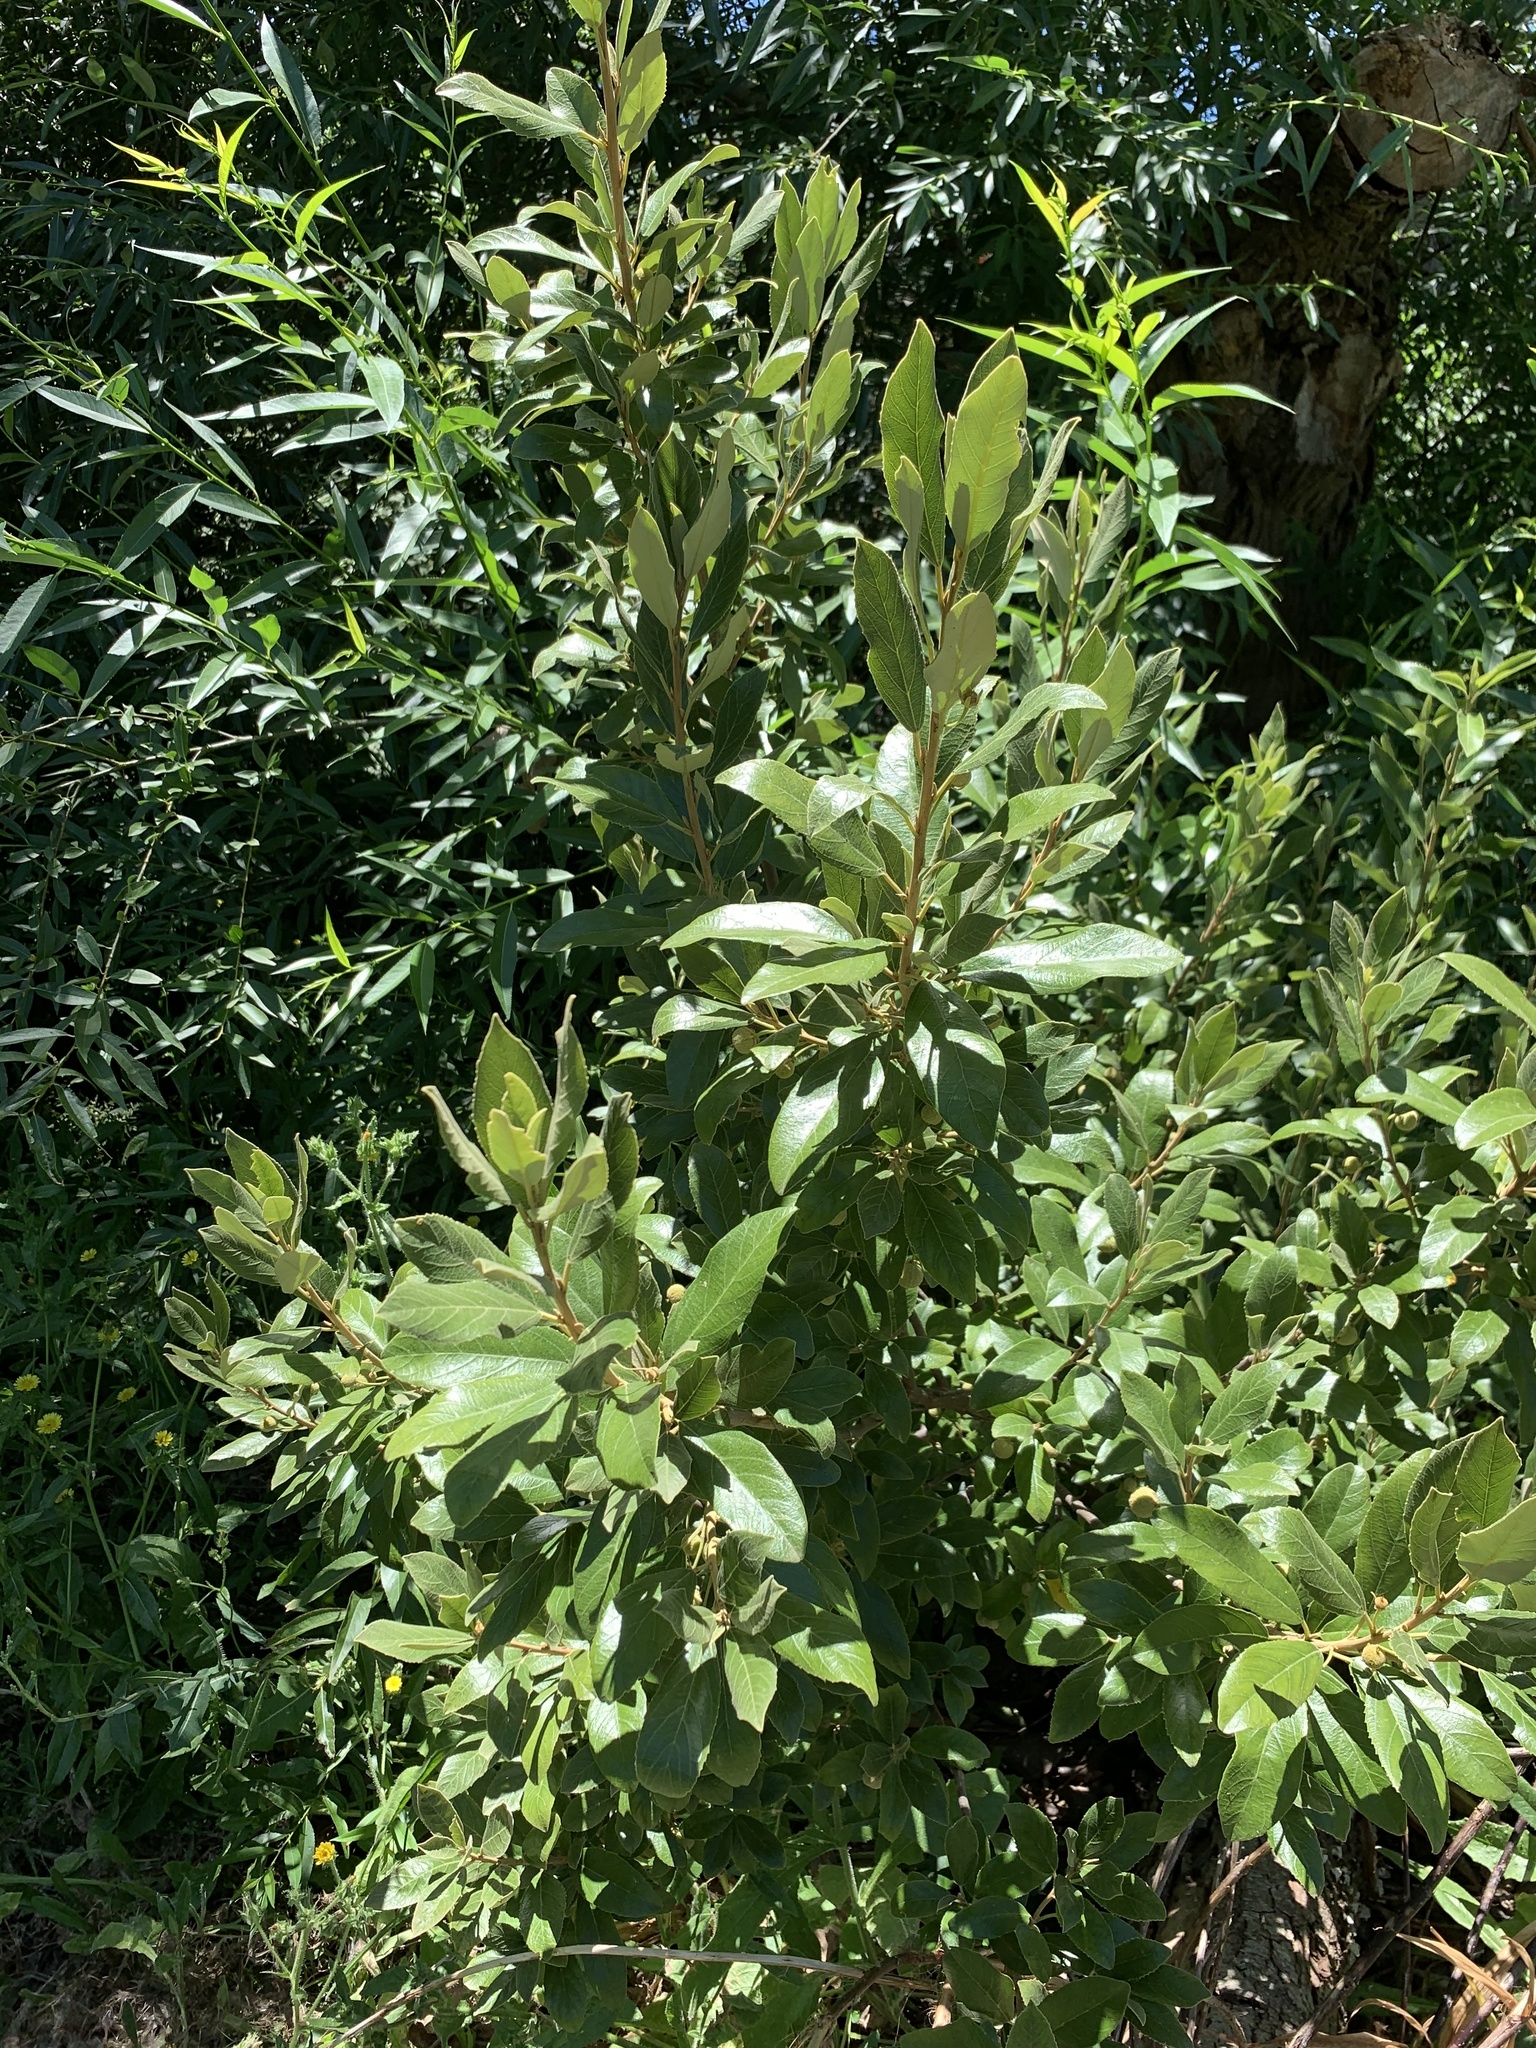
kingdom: Plantae
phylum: Tracheophyta
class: Magnoliopsida
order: Malpighiales
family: Achariaceae
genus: Kiggelaria
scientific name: Kiggelaria africana
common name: Wild peach
